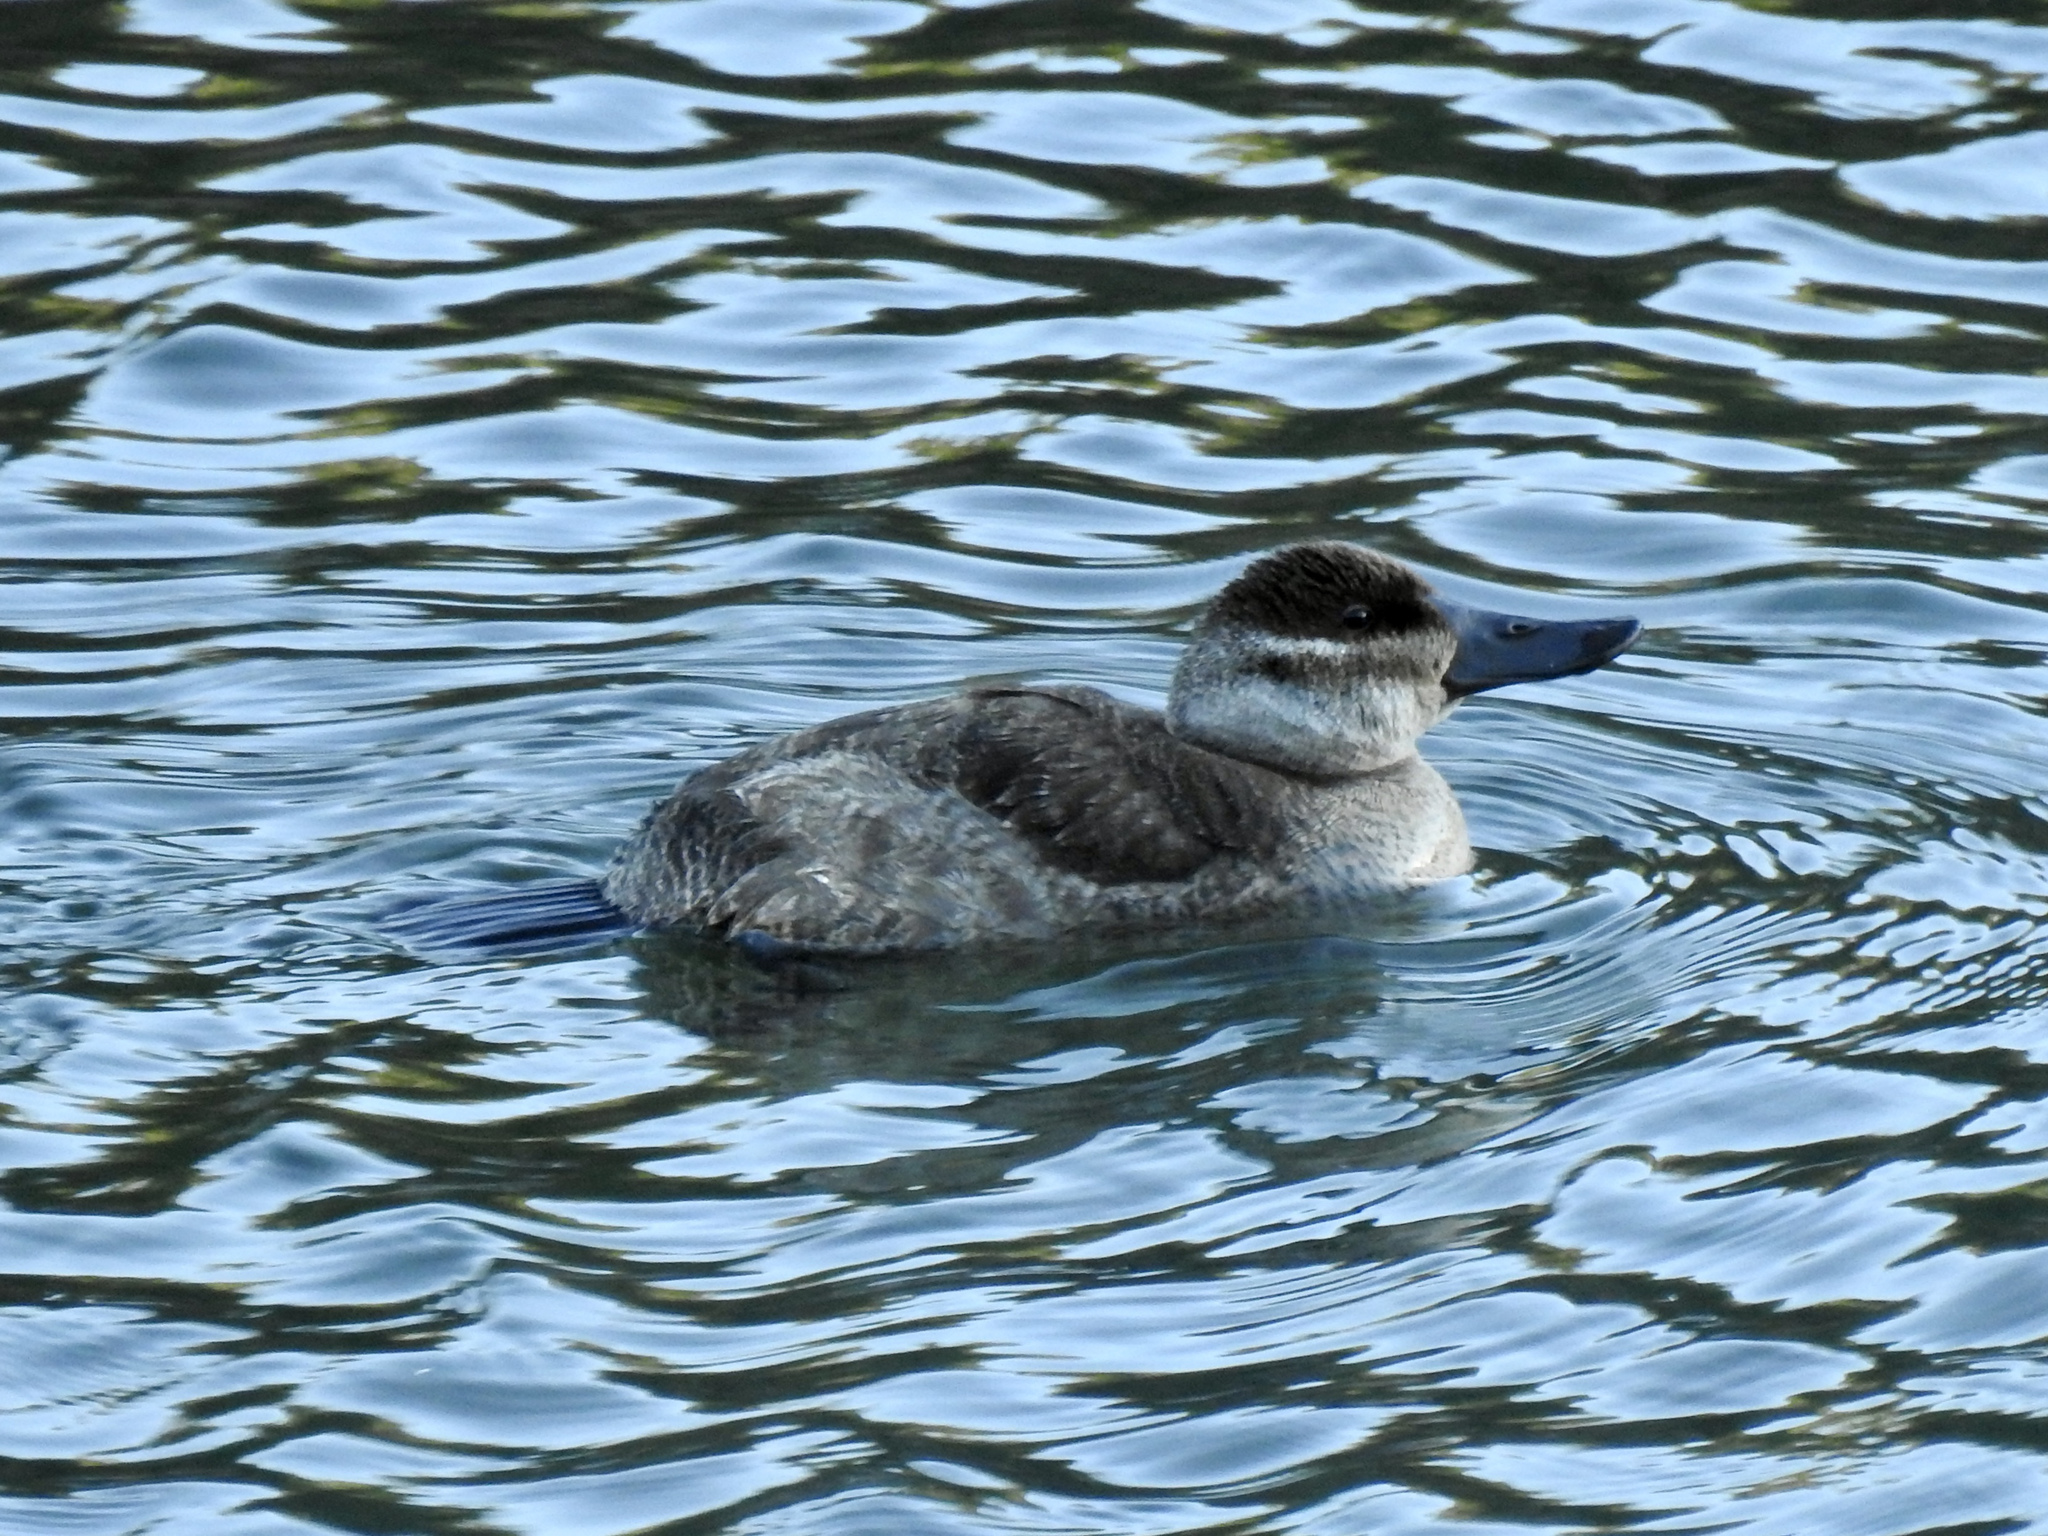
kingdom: Animalia
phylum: Chordata
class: Aves
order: Anseriformes
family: Anatidae
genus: Oxyura
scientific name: Oxyura jamaicensis
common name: Ruddy duck
